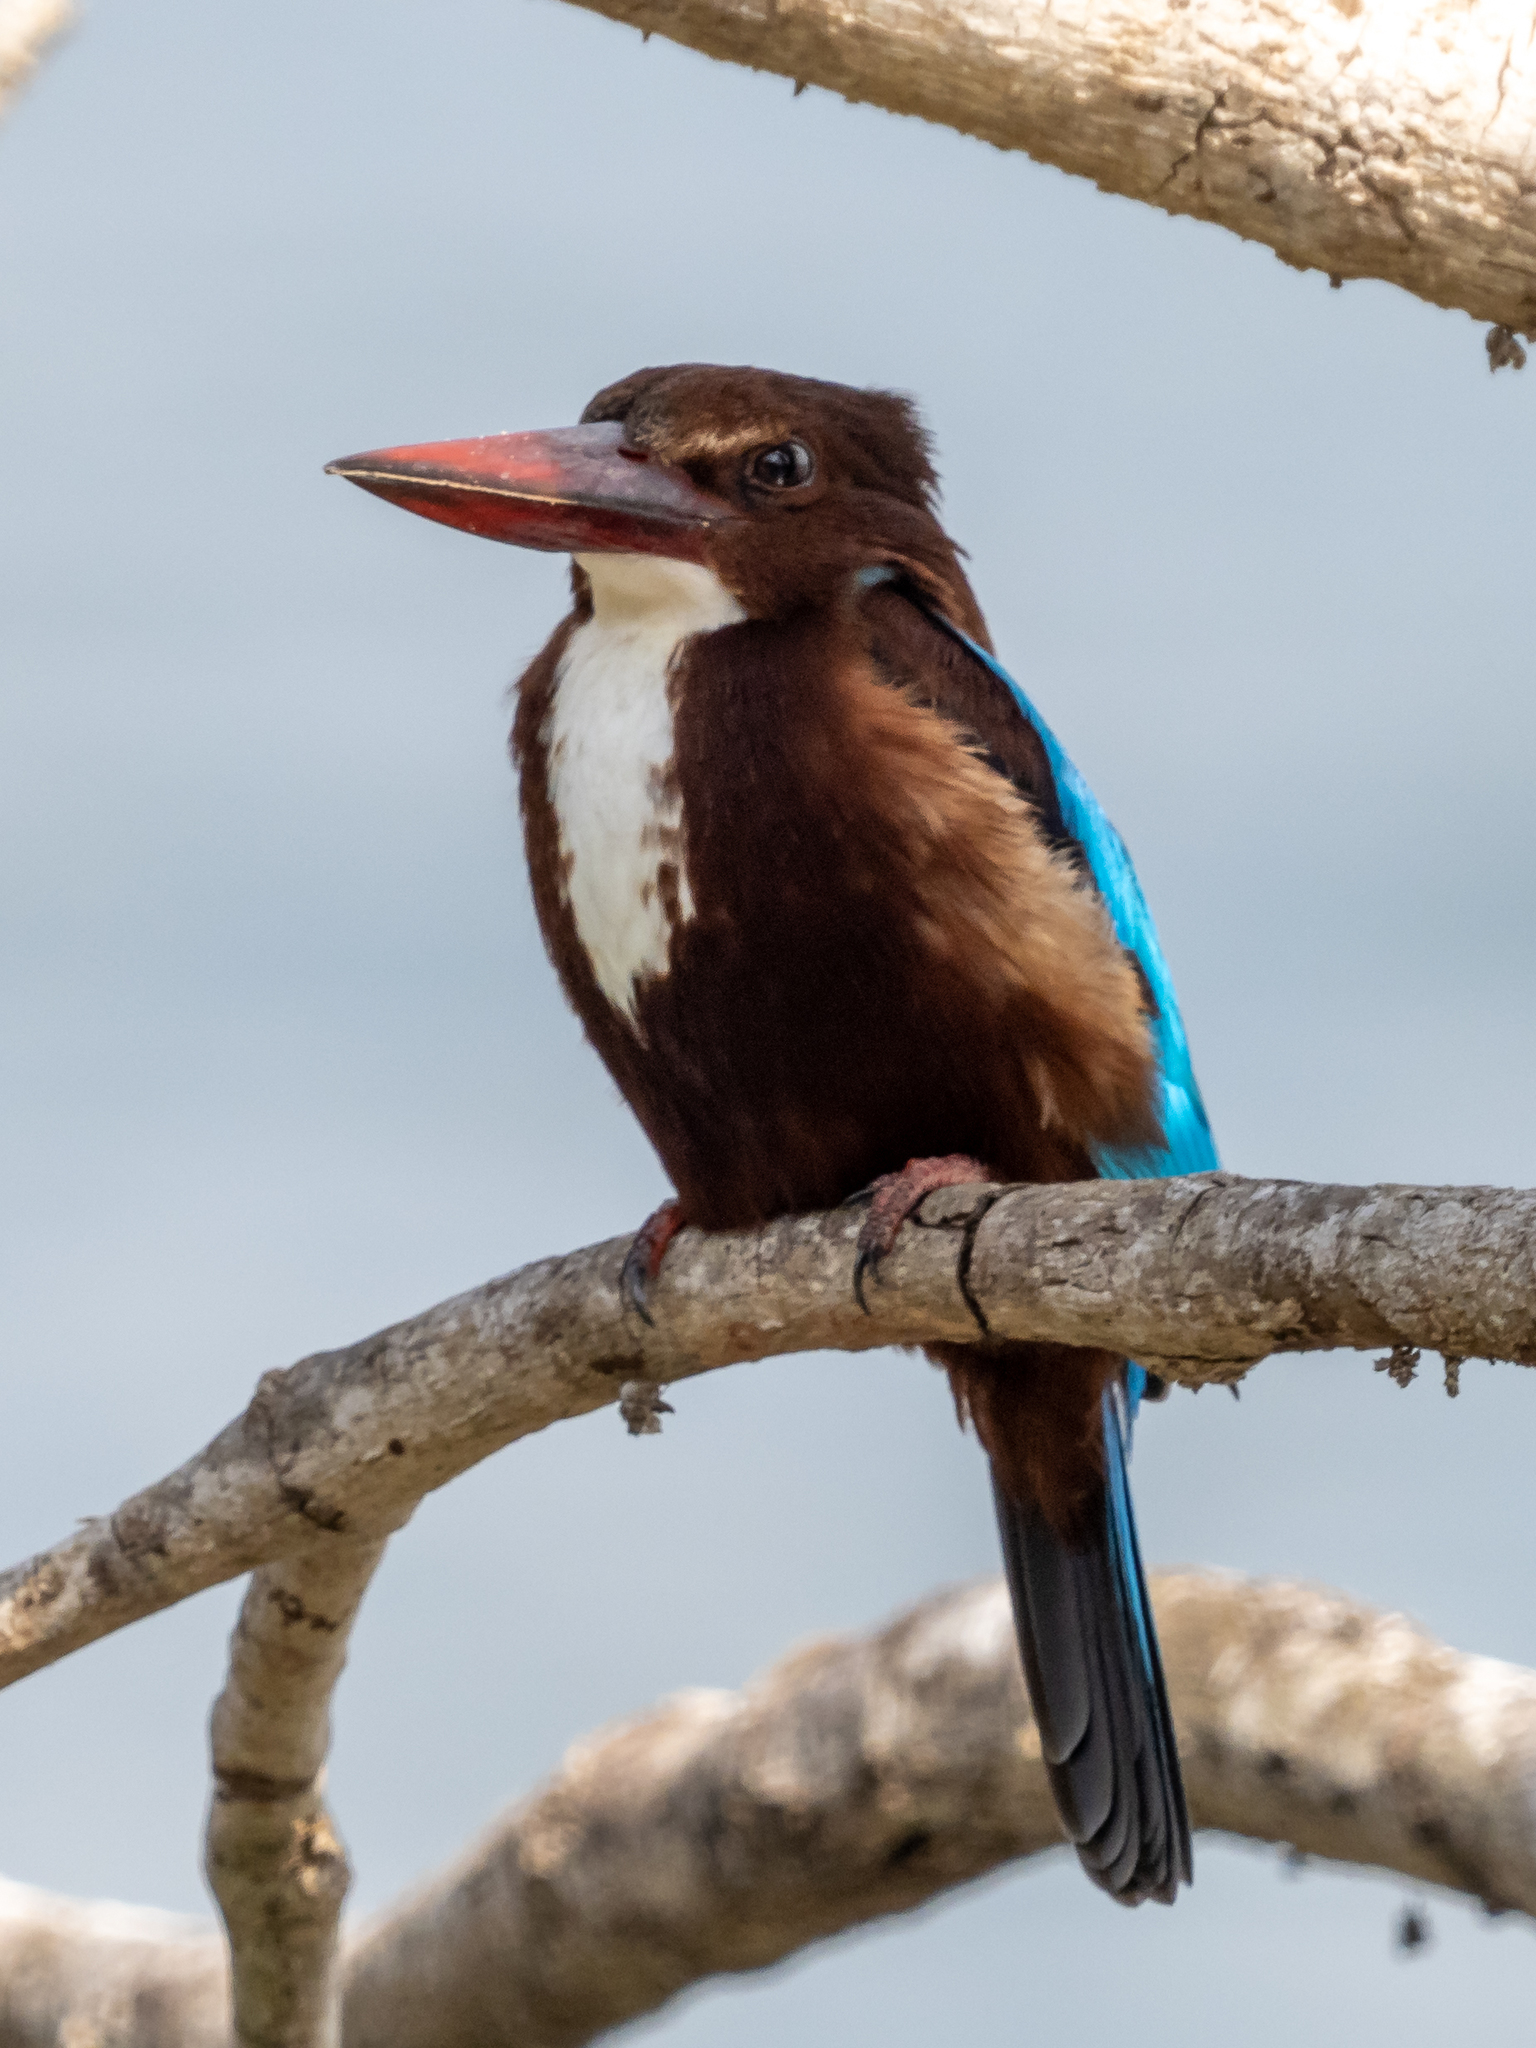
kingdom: Animalia
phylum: Chordata
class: Aves
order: Coraciiformes
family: Alcedinidae
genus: Halcyon
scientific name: Halcyon smyrnensis
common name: White-throated kingfisher
